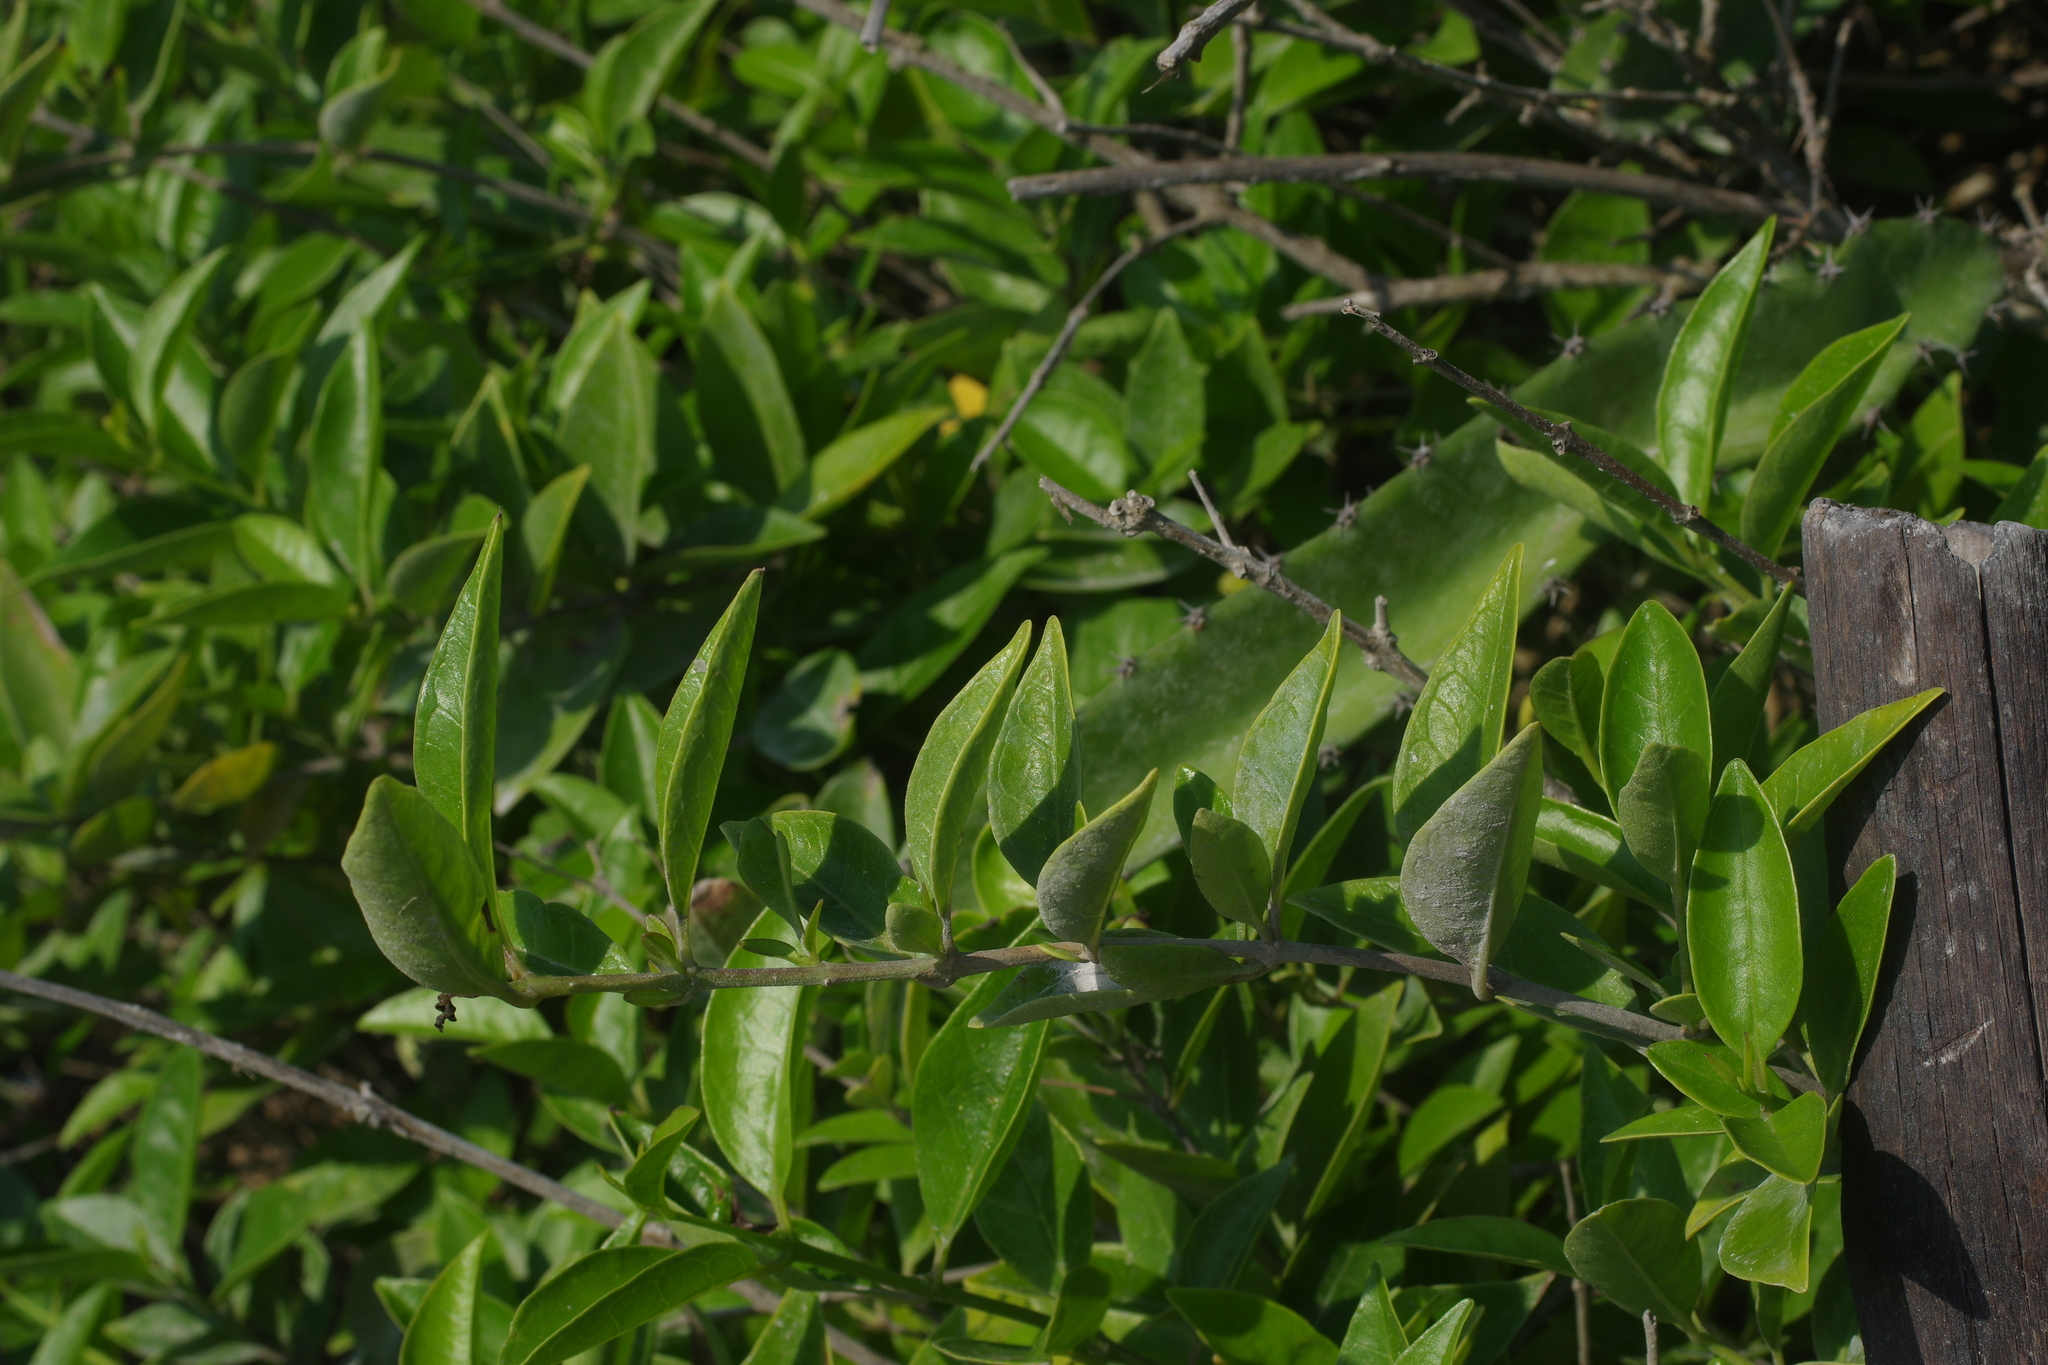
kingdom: Plantae
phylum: Tracheophyta
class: Magnoliopsida
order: Lamiales
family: Lamiaceae
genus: Volkameria
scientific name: Volkameria inermis
